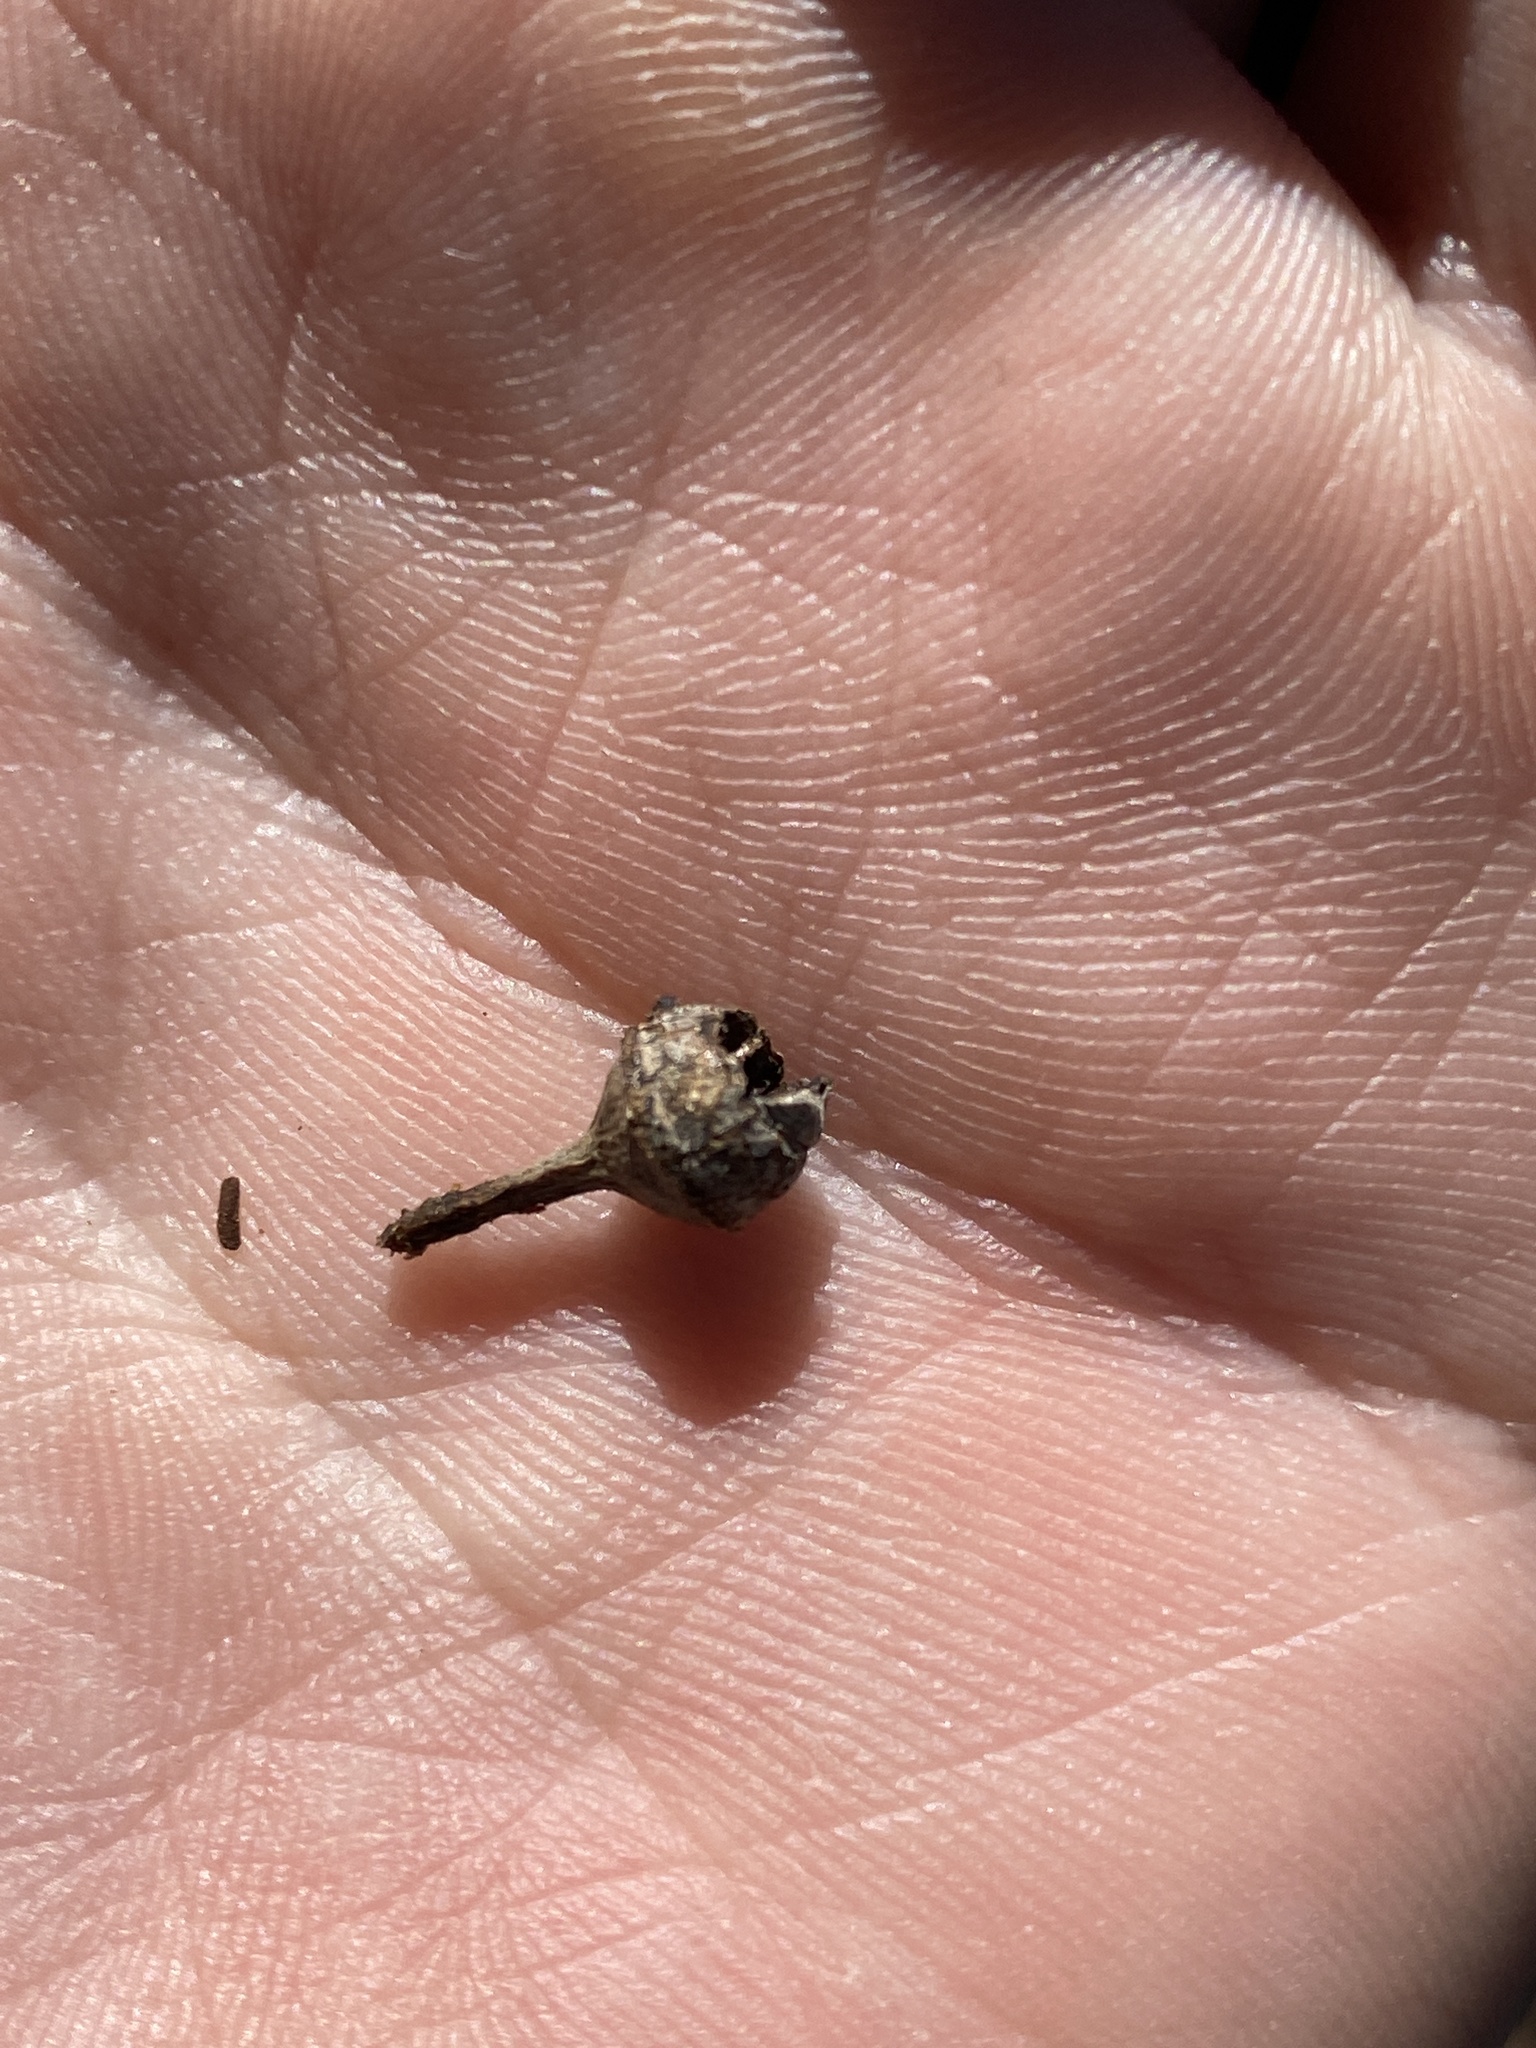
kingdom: Plantae
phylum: Tracheophyta
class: Magnoliopsida
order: Myrtales
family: Myrtaceae
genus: Eucalyptus
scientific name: Eucalyptus tereticornis
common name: Forest redgum
